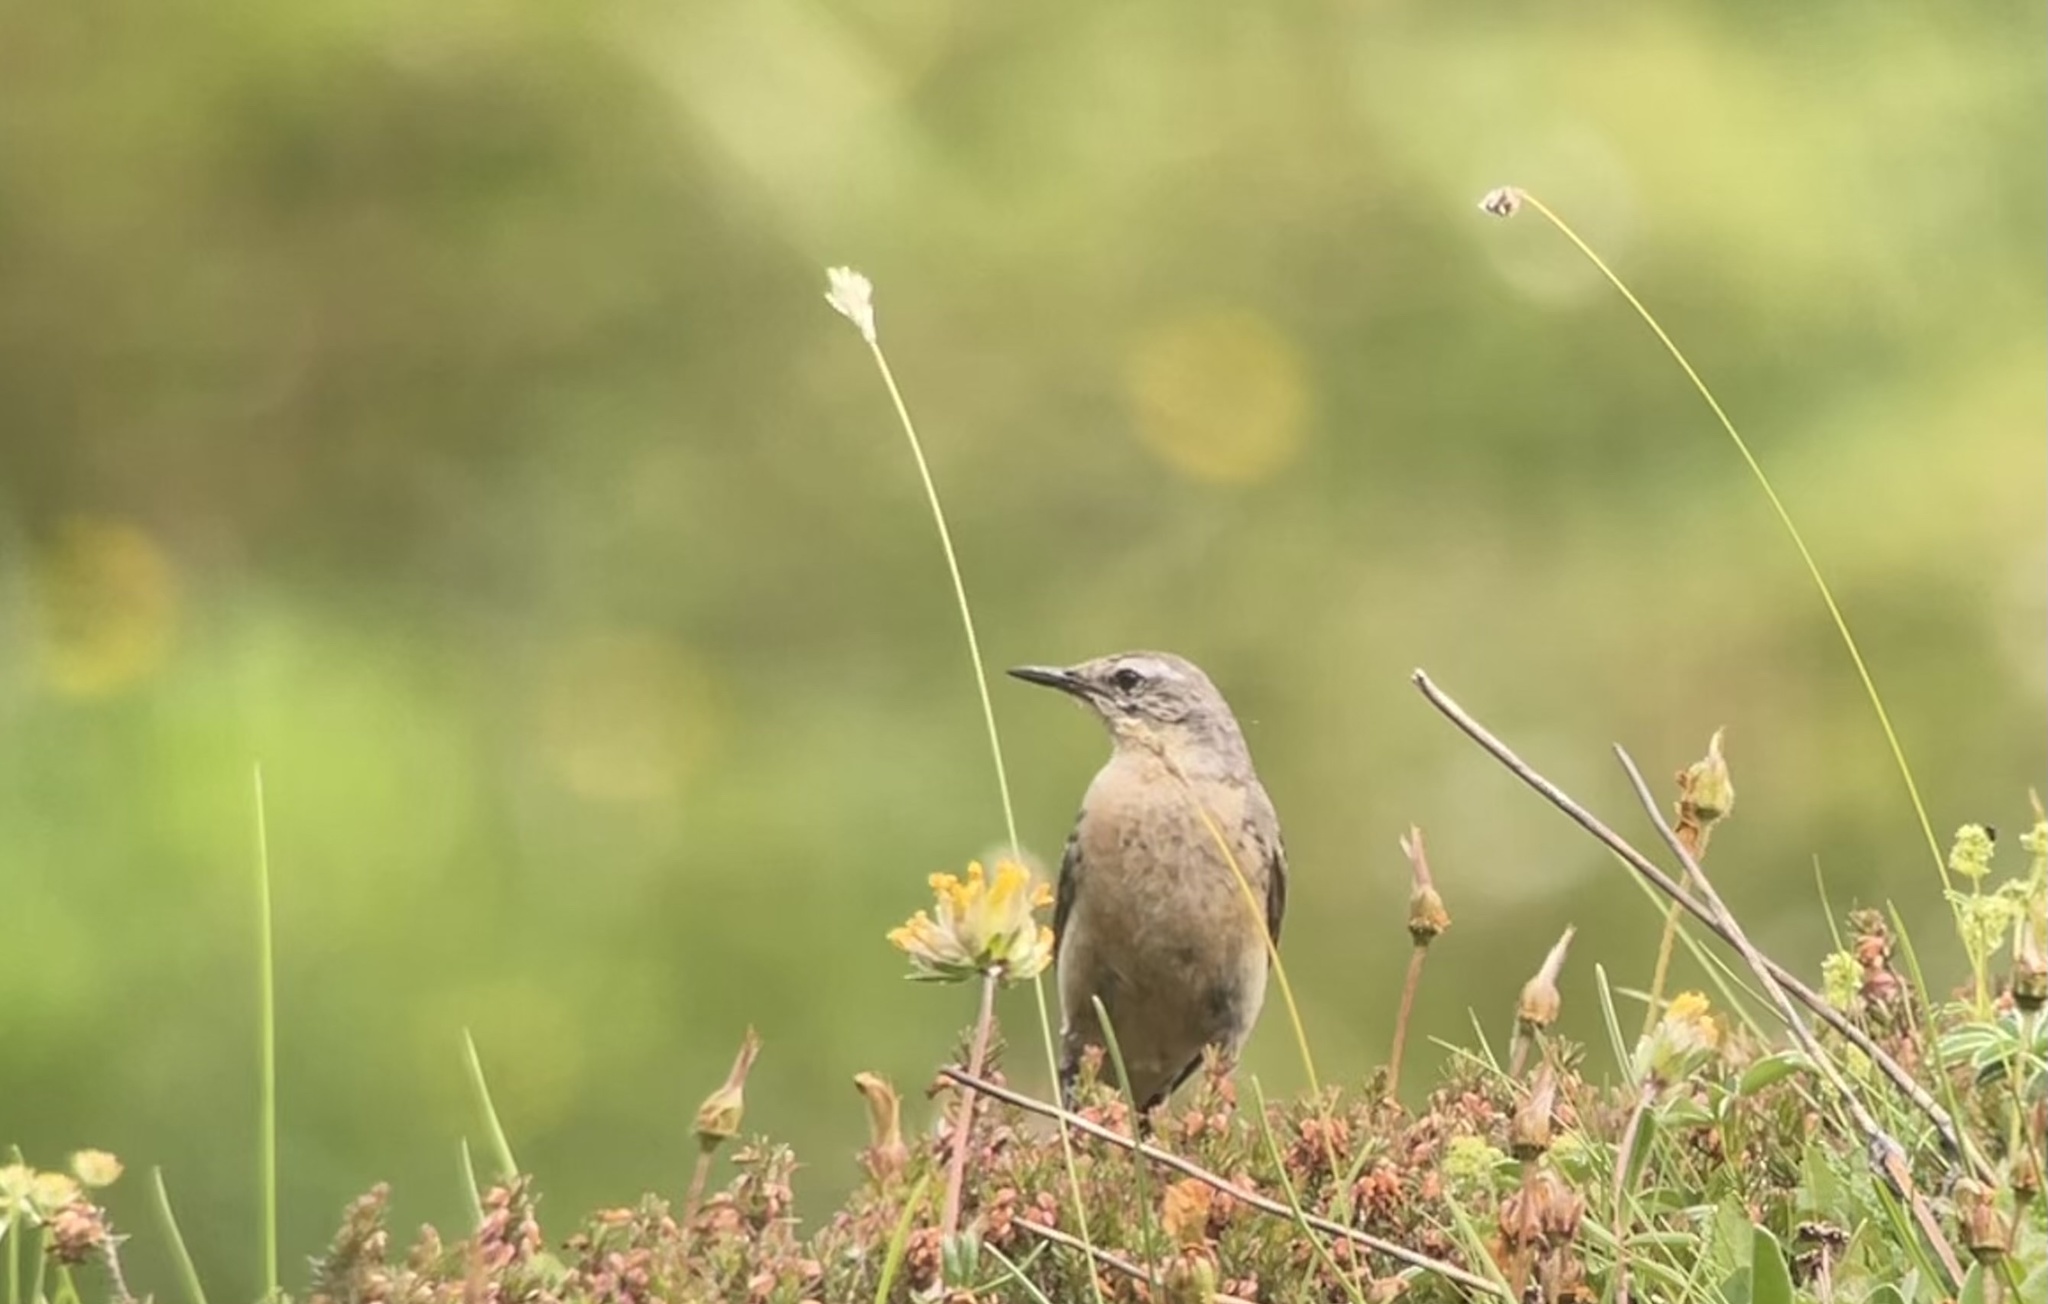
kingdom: Animalia
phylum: Chordata
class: Aves
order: Passeriformes
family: Motacillidae
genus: Anthus
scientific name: Anthus spinoletta
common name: Water pipit
